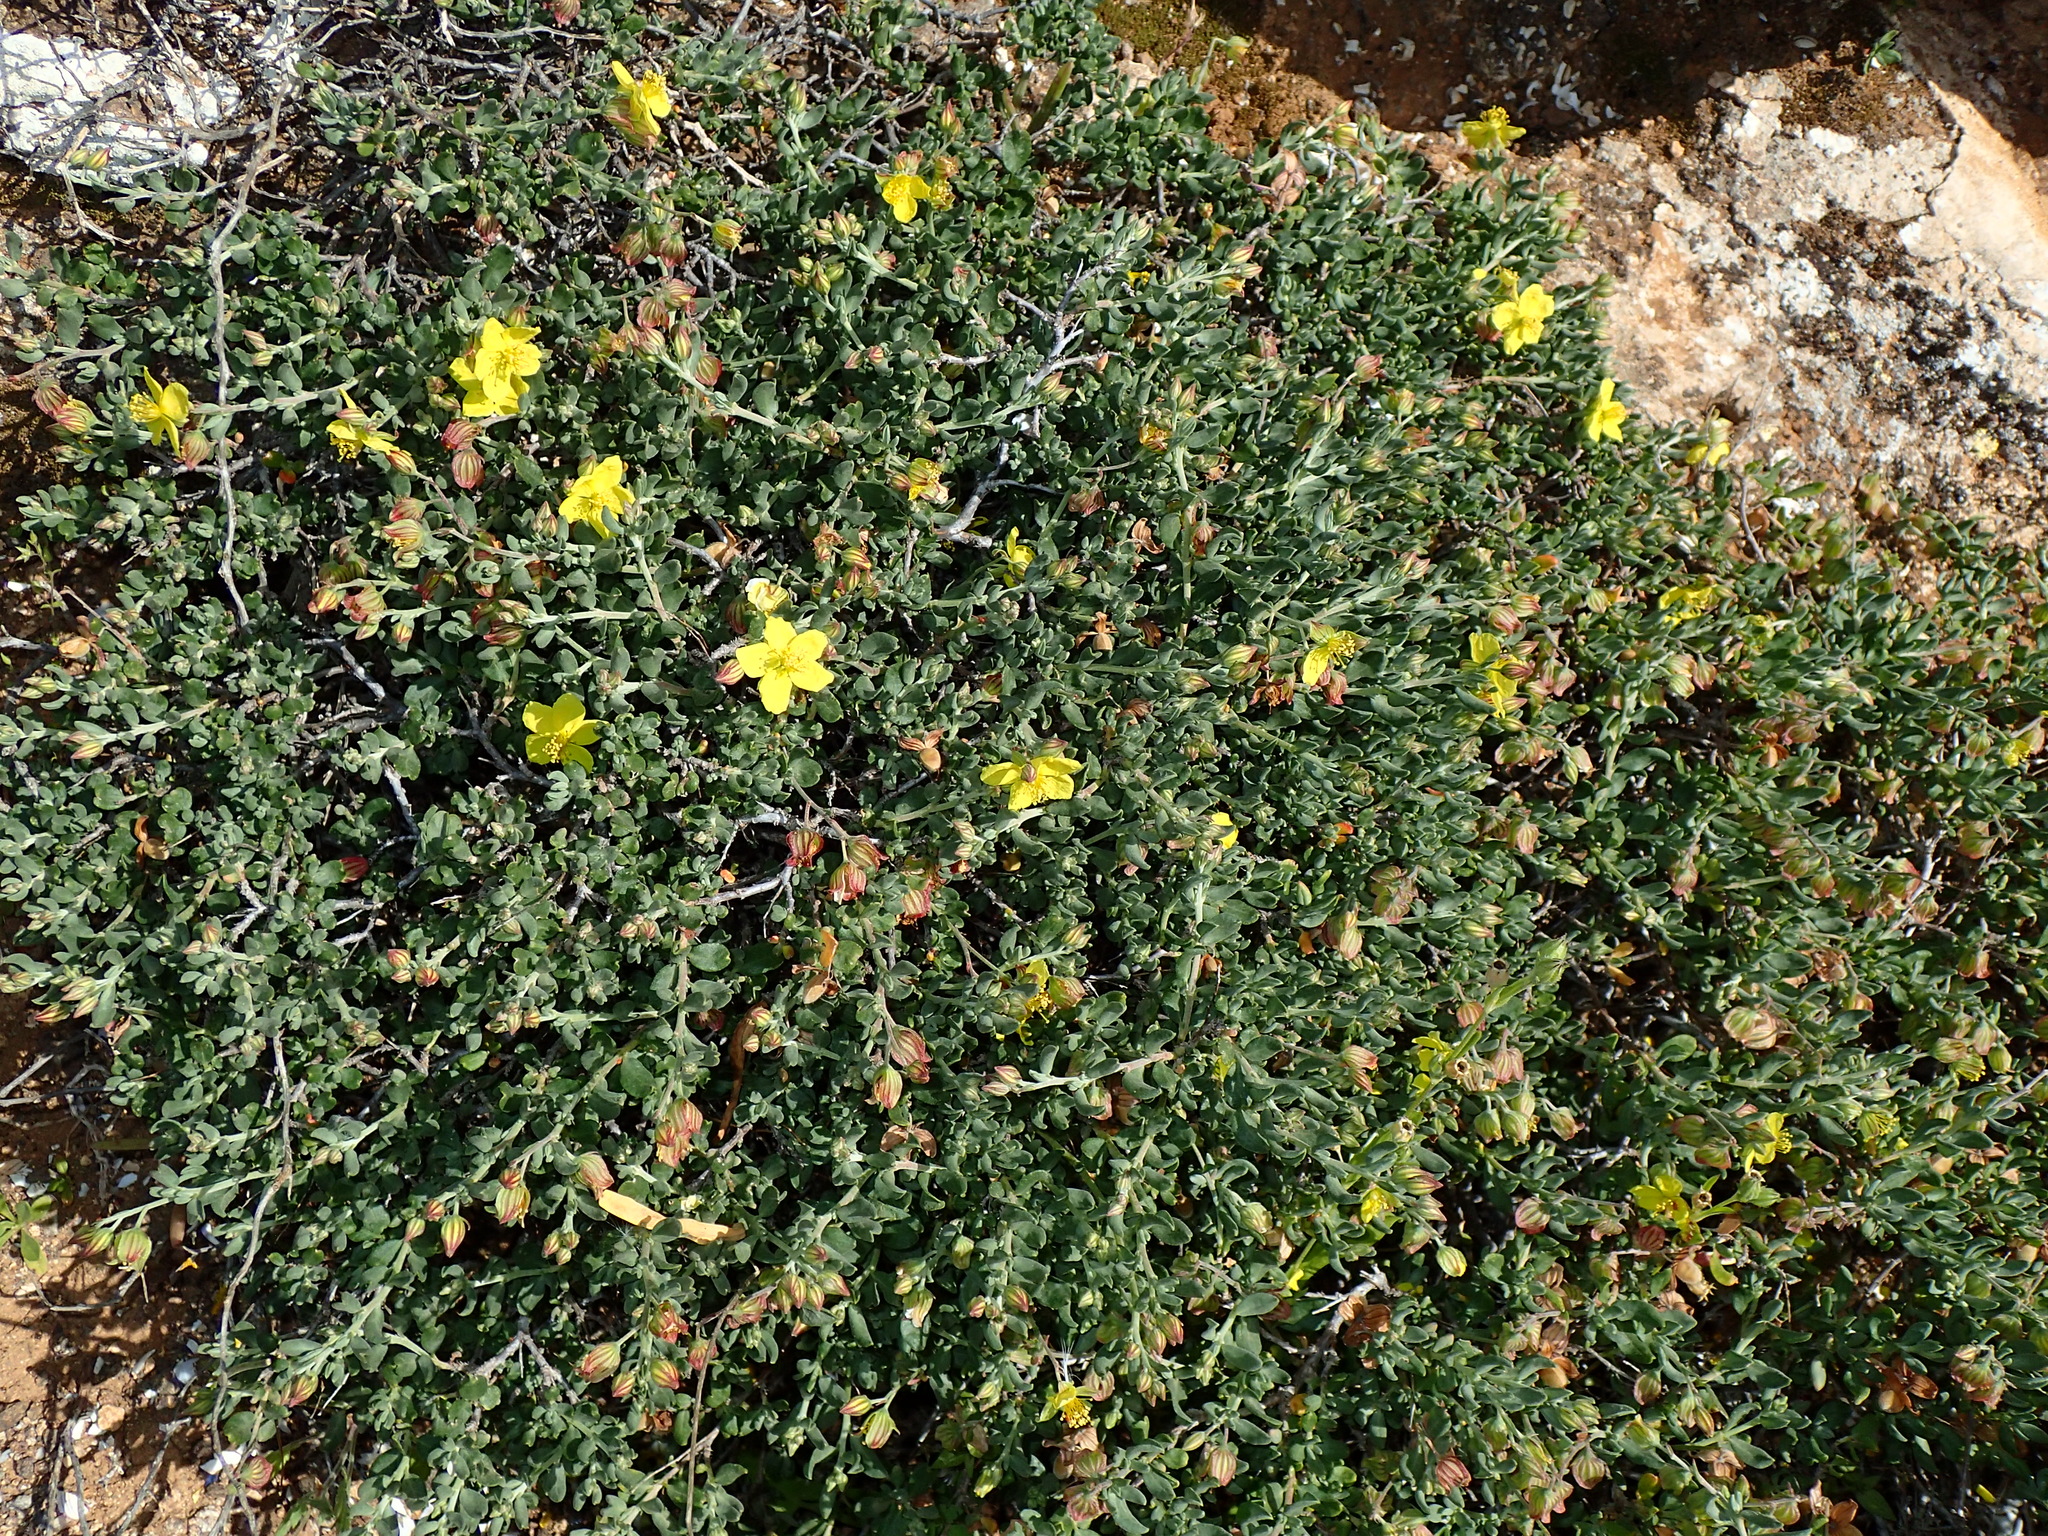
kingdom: Plantae
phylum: Tracheophyta
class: Magnoliopsida
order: Malvales
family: Cistaceae
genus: Helianthemum
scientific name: Helianthemum canariense
